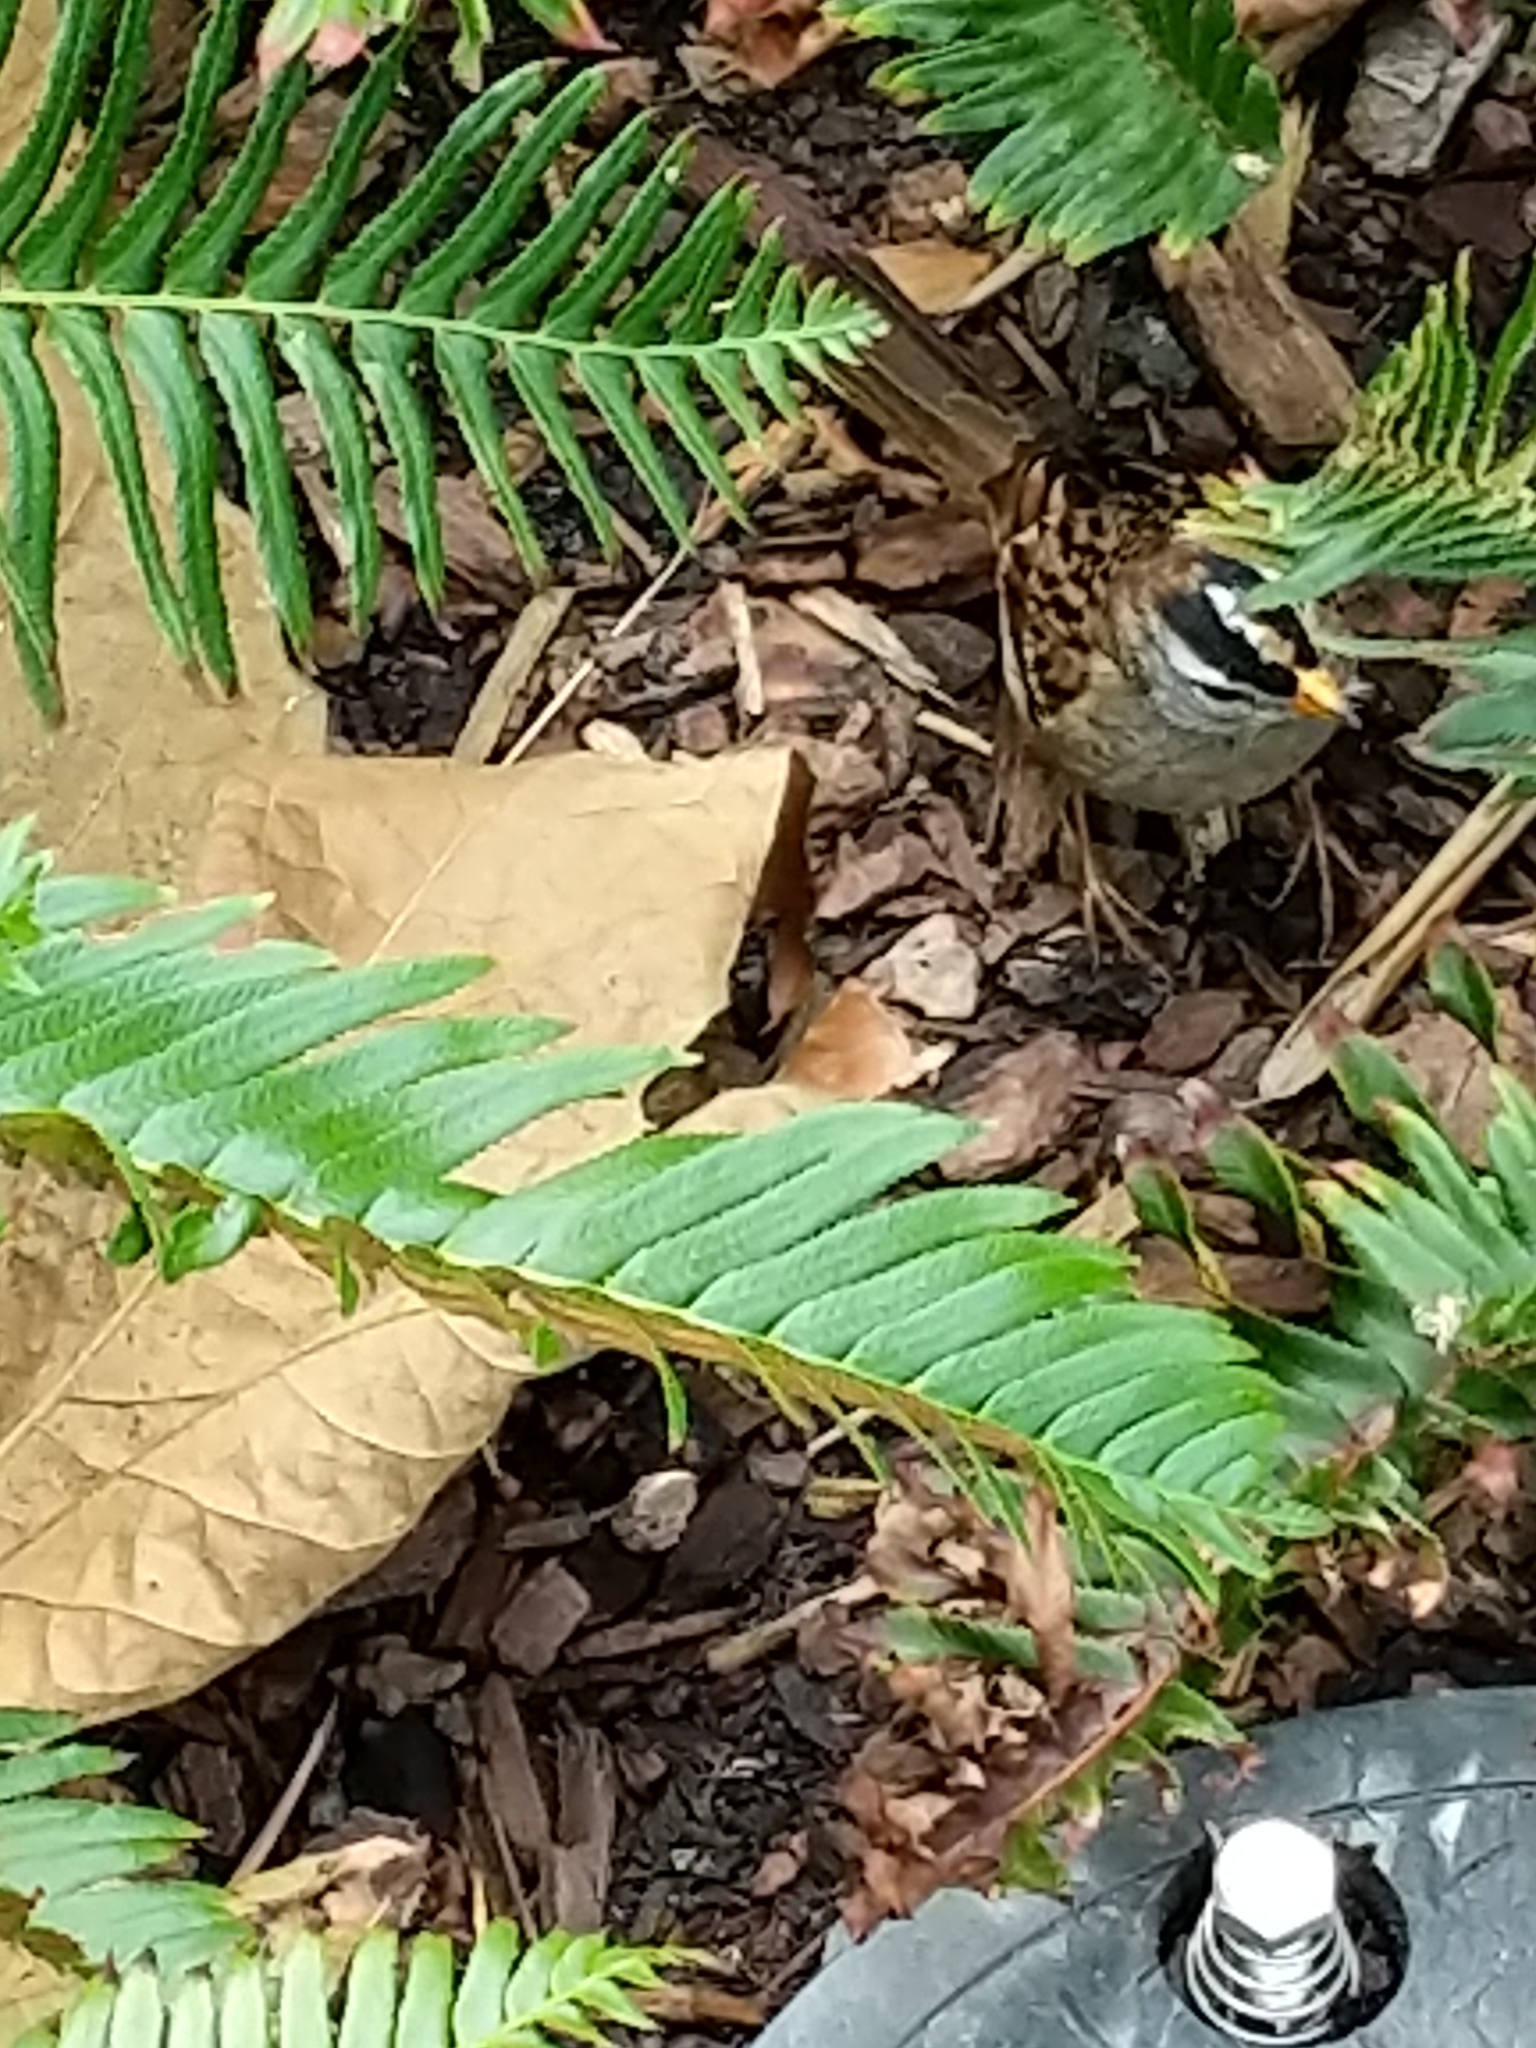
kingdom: Animalia
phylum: Chordata
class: Aves
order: Passeriformes
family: Passerellidae
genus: Zonotrichia
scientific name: Zonotrichia leucophrys
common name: White-crowned sparrow
